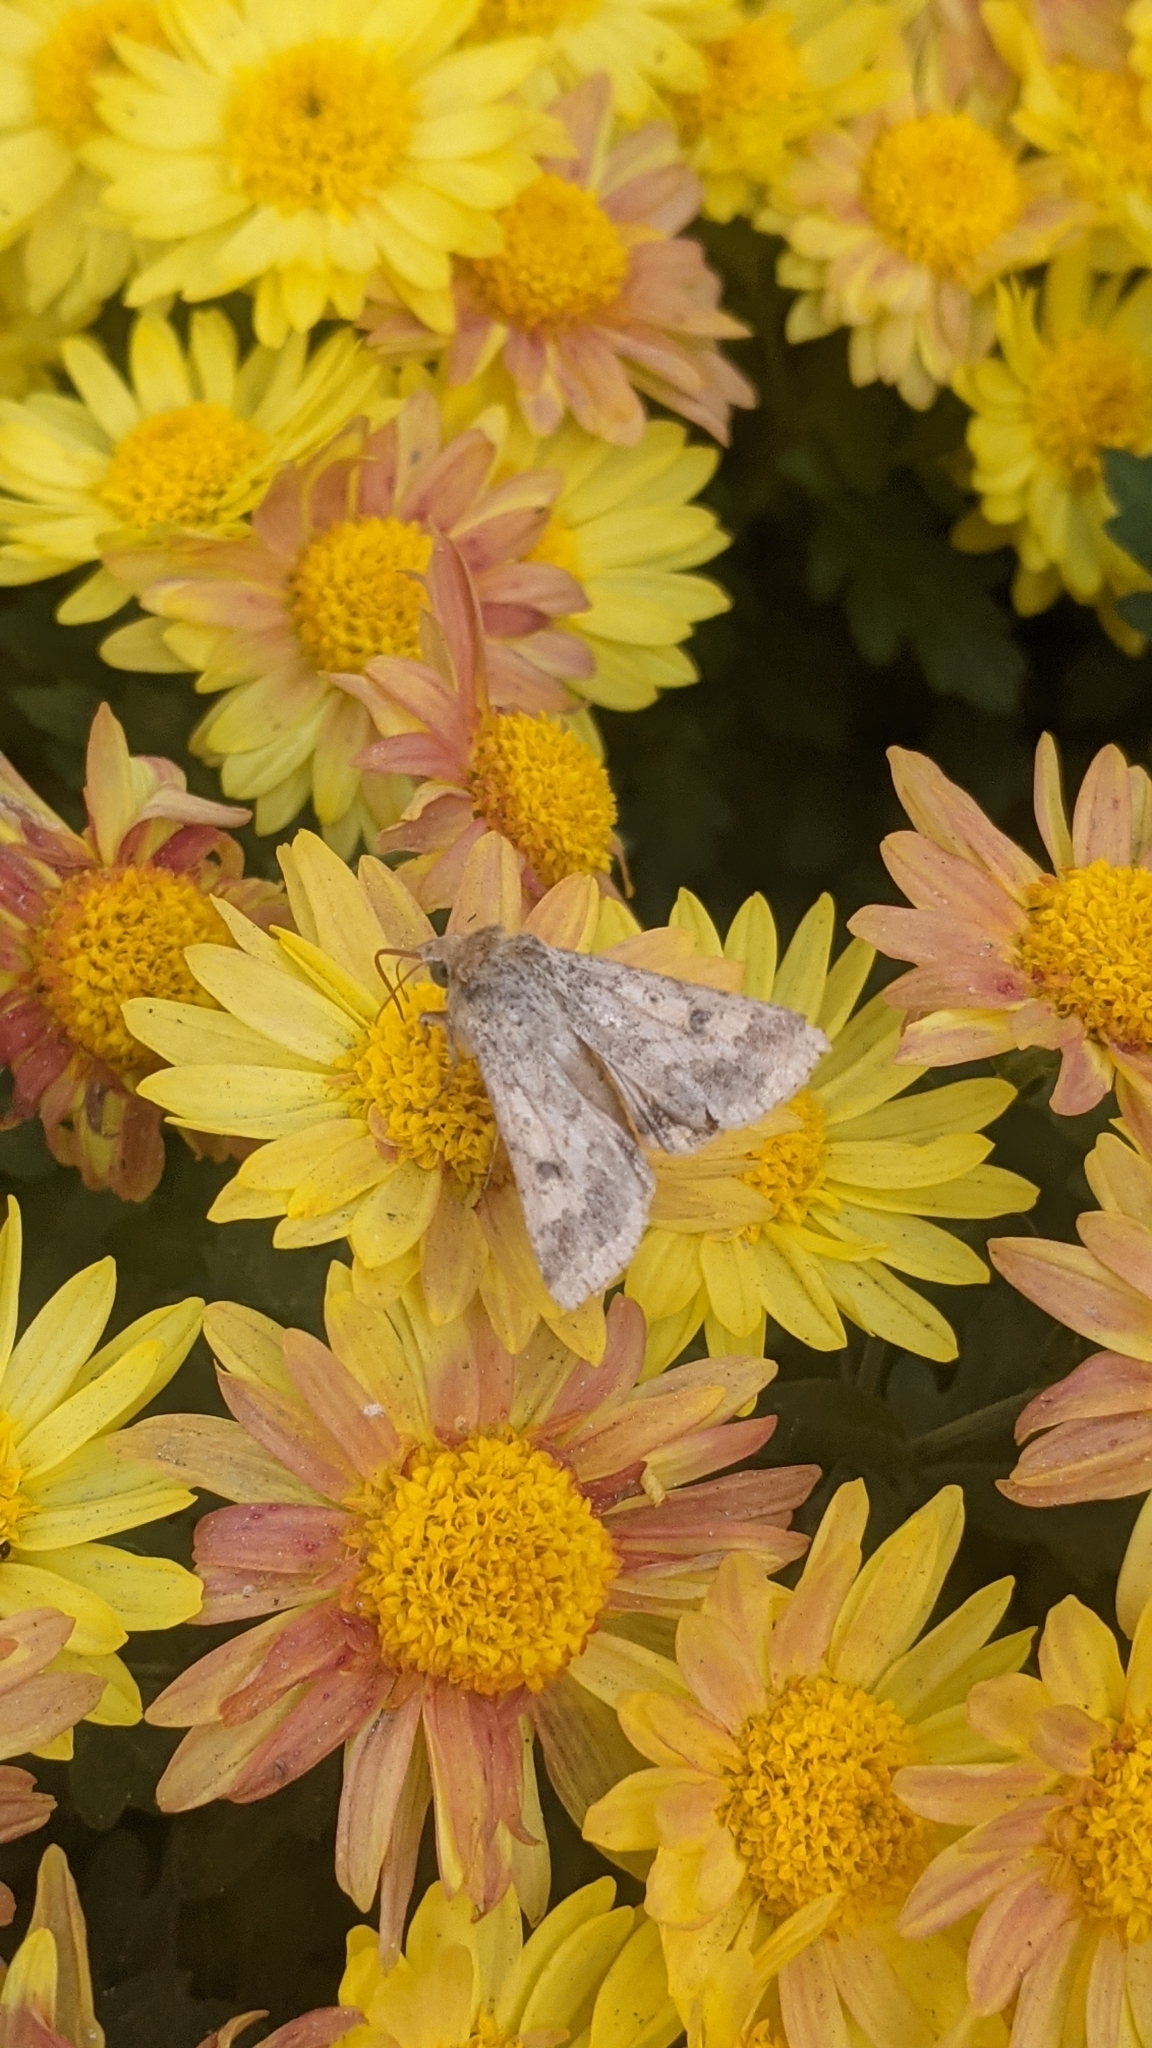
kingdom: Animalia
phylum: Arthropoda
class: Insecta
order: Lepidoptera
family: Noctuidae
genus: Helicoverpa
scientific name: Helicoverpa armigera
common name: Cotton bollworm
